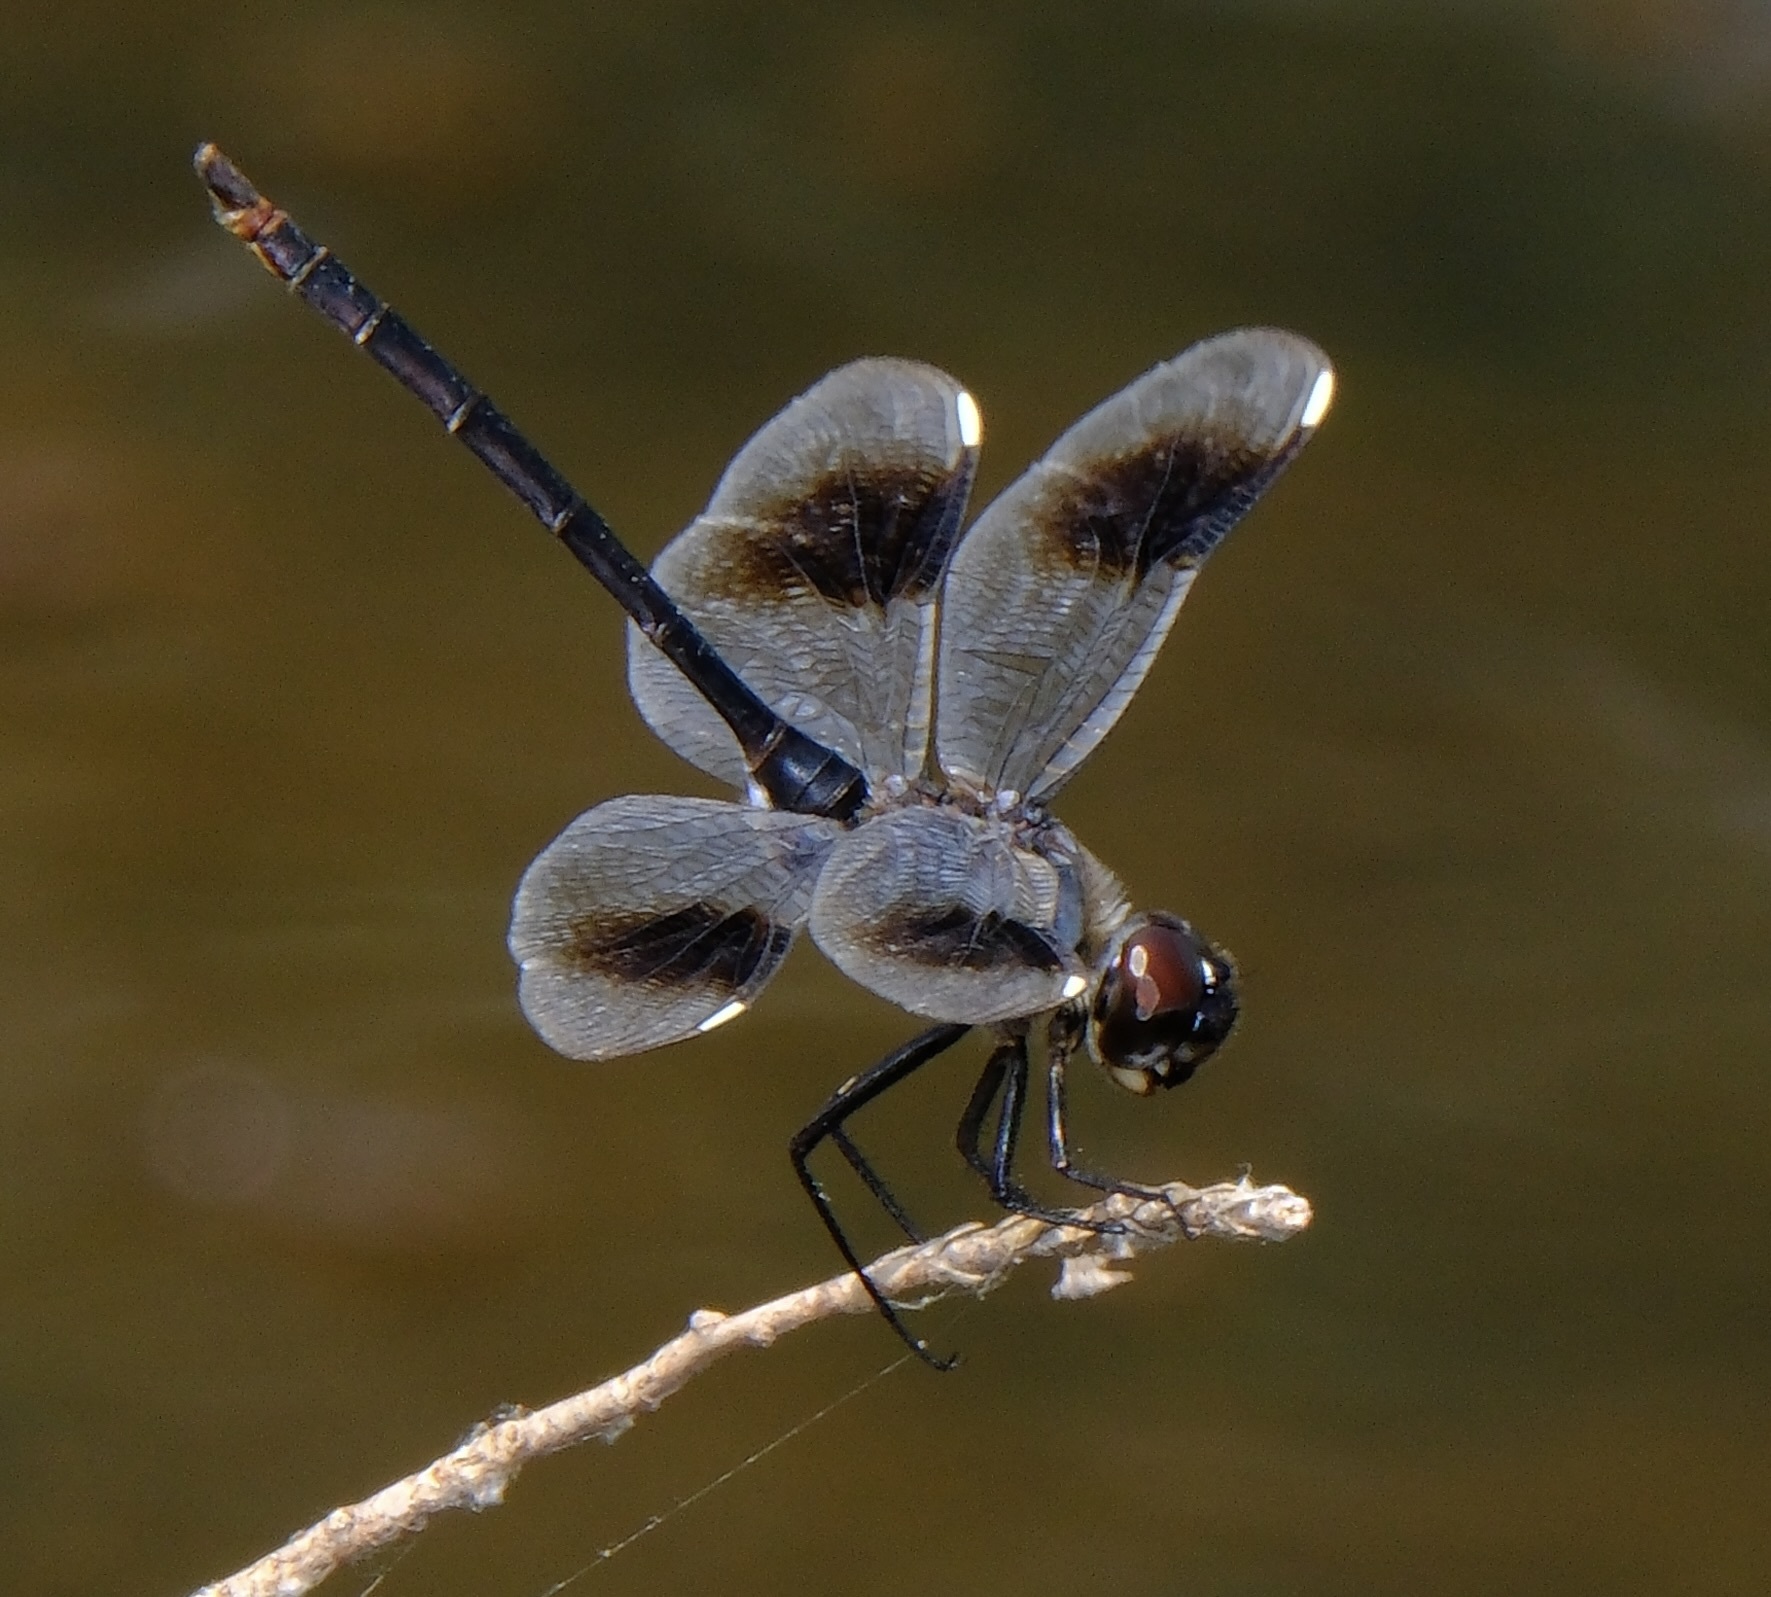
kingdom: Animalia
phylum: Arthropoda
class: Insecta
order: Odonata
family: Libellulidae
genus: Brachymesia
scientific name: Brachymesia gravida
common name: Four-spotted pennant
